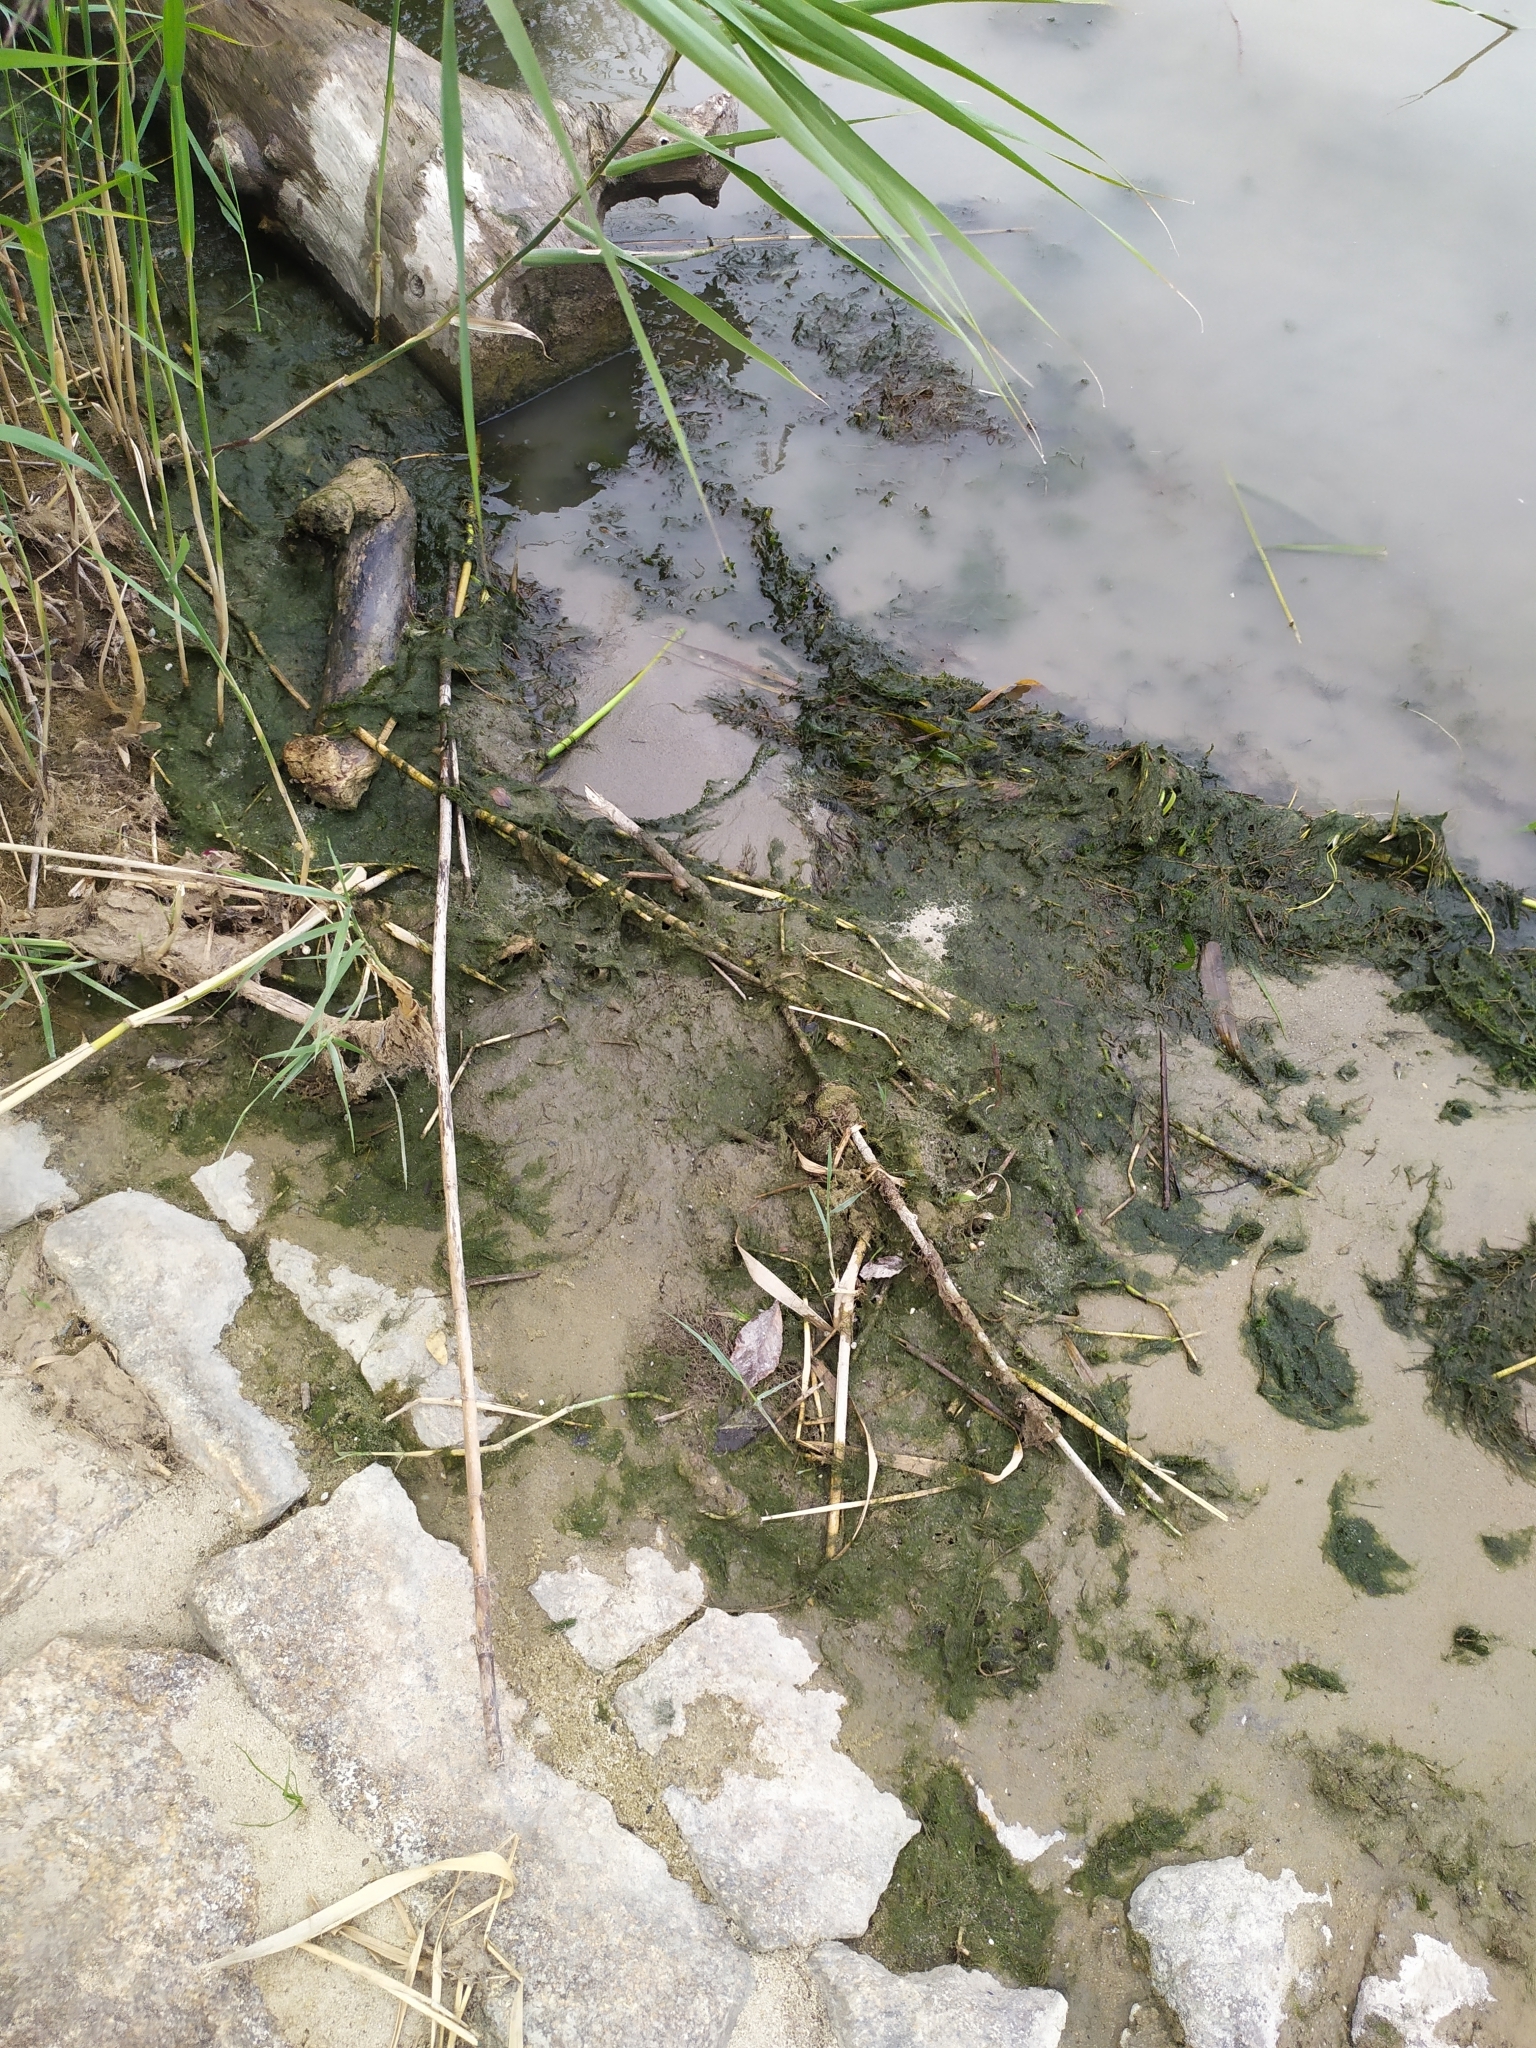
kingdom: Animalia
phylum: Arthropoda
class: Insecta
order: Orthoptera
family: Tridactylidae
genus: Xya
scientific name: Xya variegata
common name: Le tridactyle panaché
